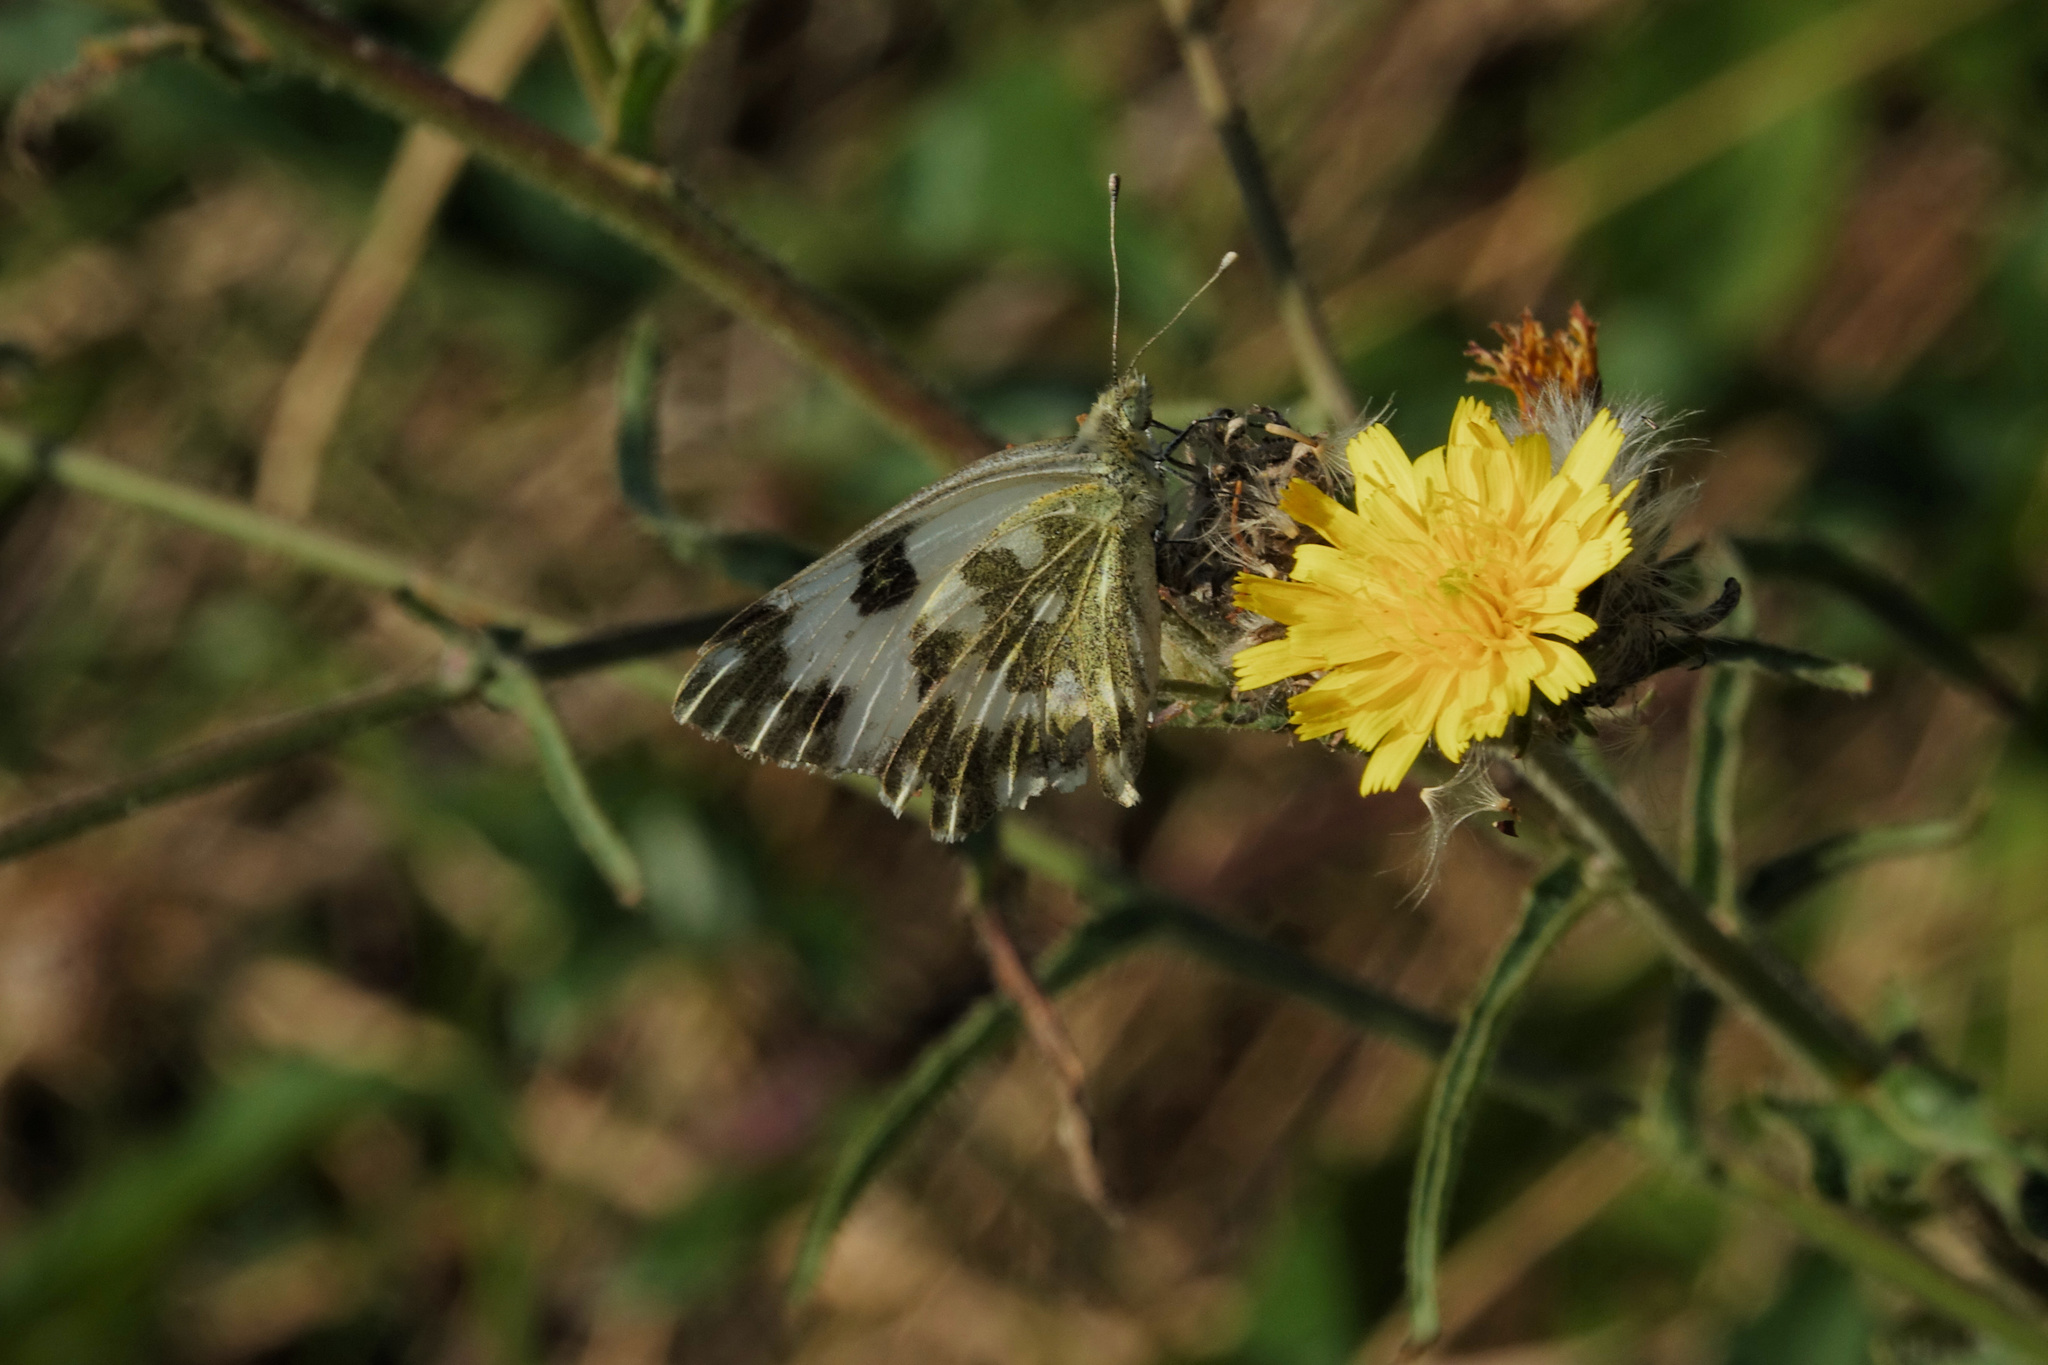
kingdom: Animalia
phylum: Arthropoda
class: Insecta
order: Lepidoptera
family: Pieridae
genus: Pontia
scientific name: Pontia daplidice
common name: Bath white
